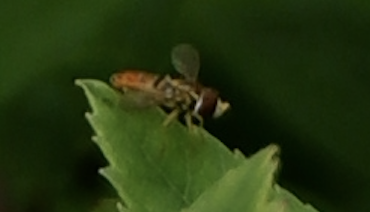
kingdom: Animalia
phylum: Arthropoda
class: Insecta
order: Diptera
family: Syrphidae
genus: Toxomerus
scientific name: Toxomerus marginatus
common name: Syrphid fly
